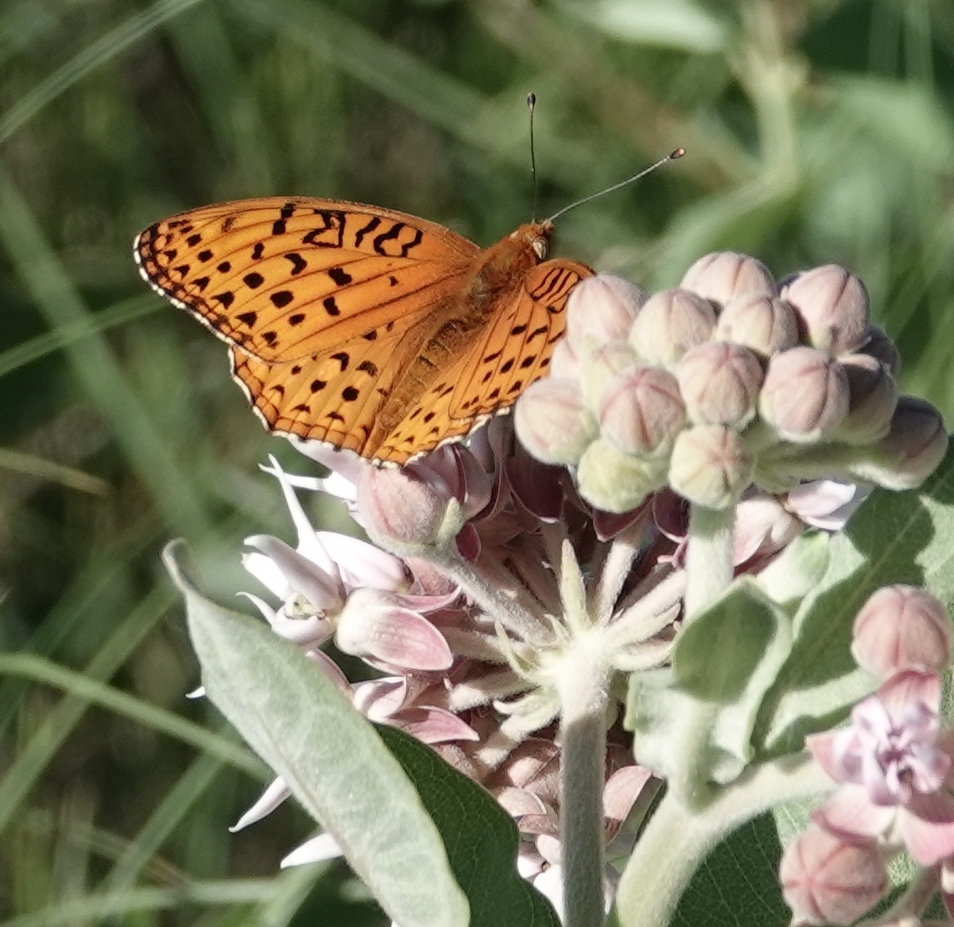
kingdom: Animalia
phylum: Arthropoda
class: Insecta
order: Lepidoptera
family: Nymphalidae
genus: Speyeria
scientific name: Speyeria aphrodite
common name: Aphrodite friitllary
